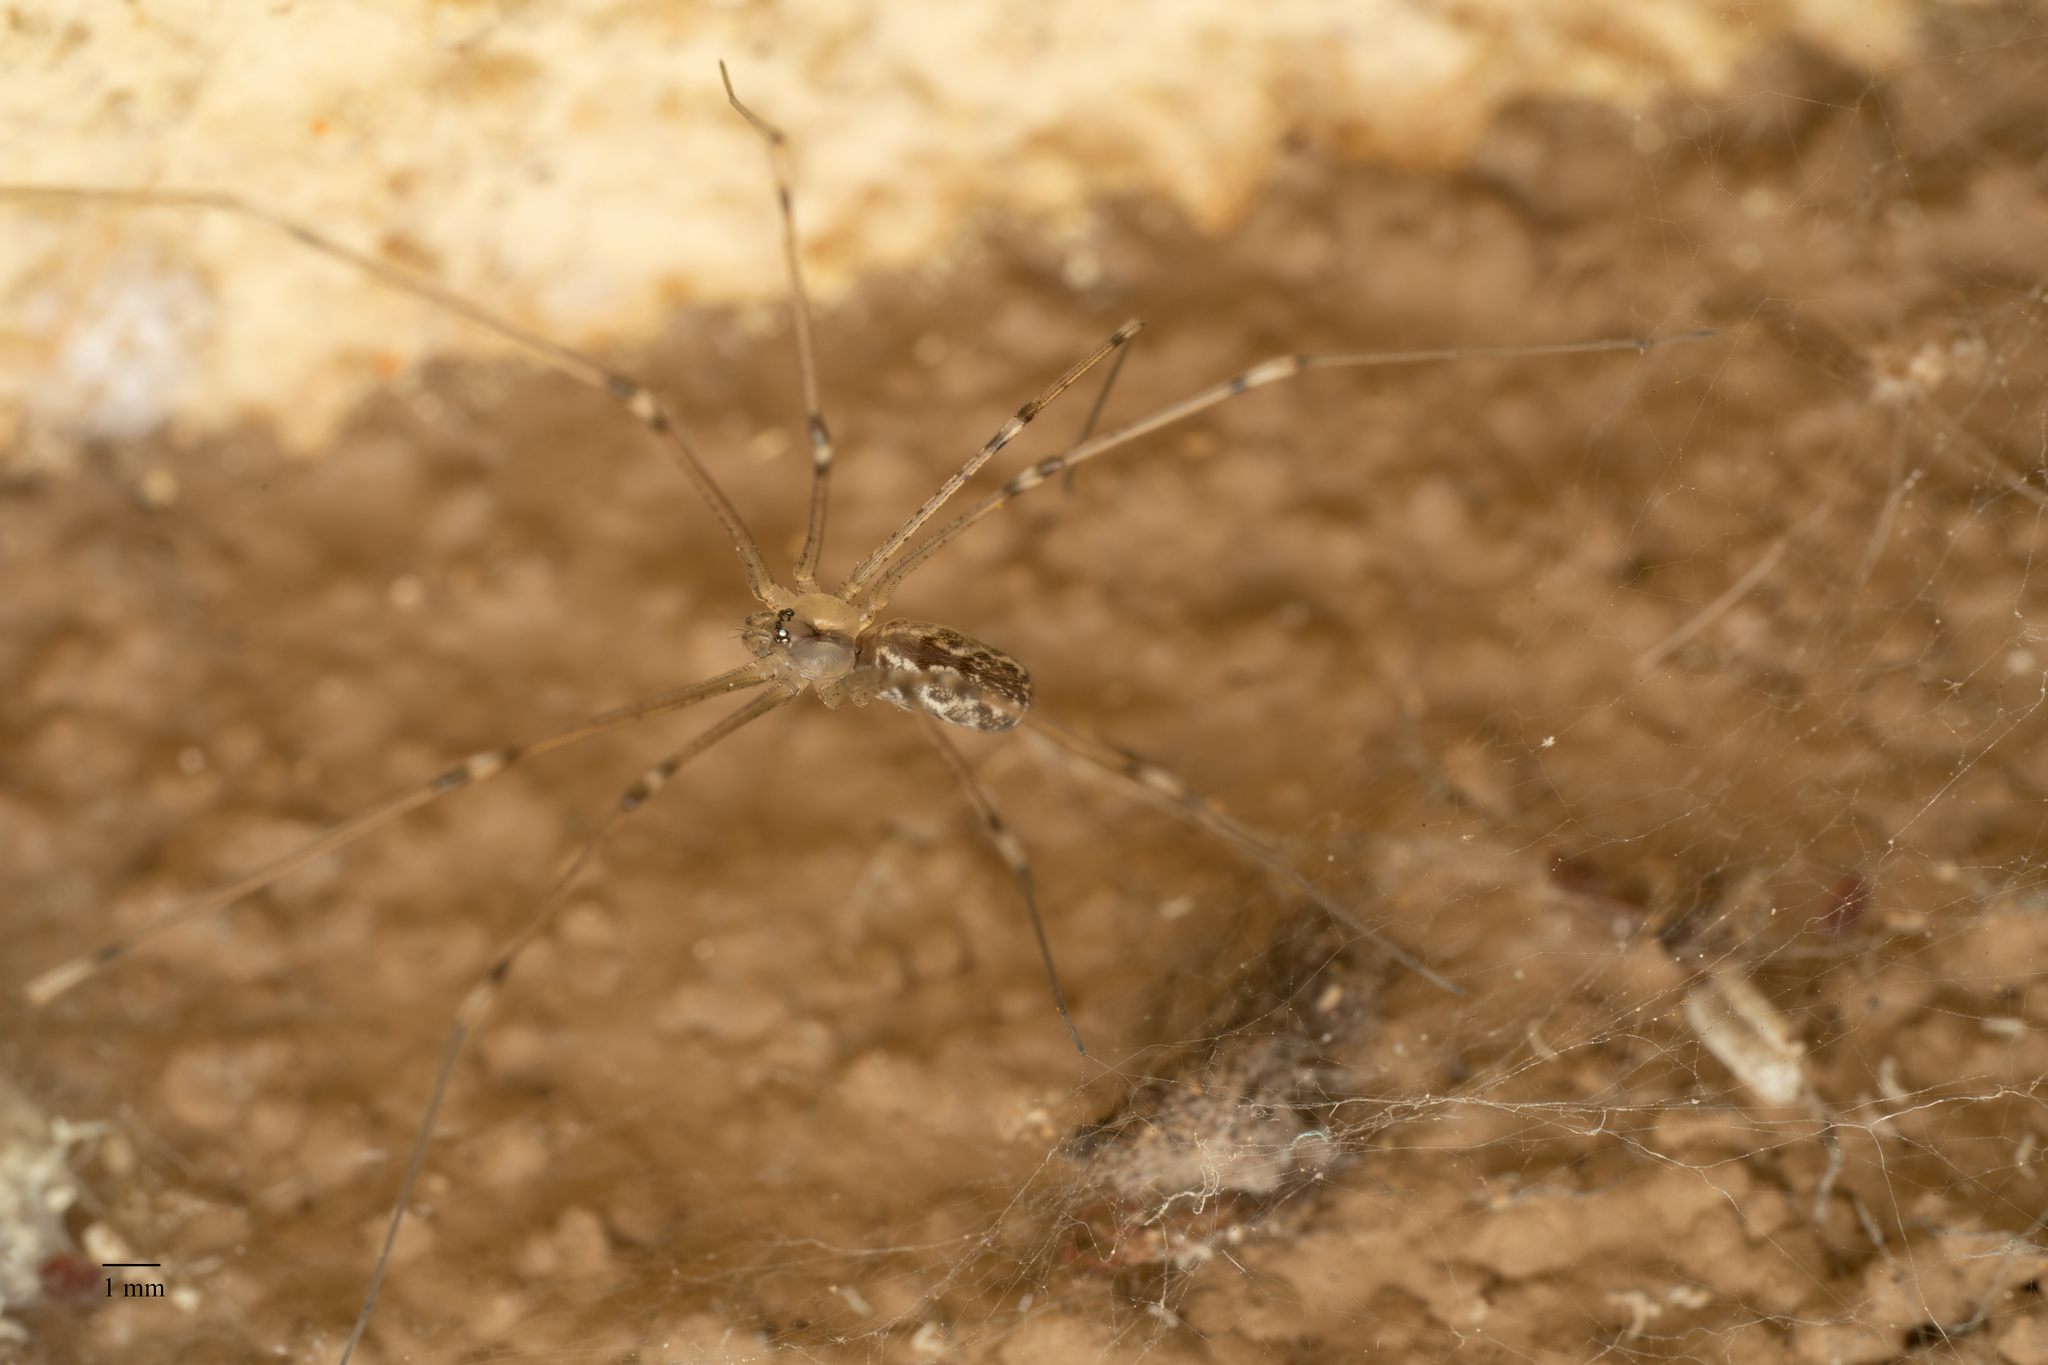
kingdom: Animalia
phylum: Arthropoda
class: Arachnida
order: Araneae
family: Pholcidae
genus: Holocnemus
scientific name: Holocnemus pluchei
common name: Marbled cellar spider
